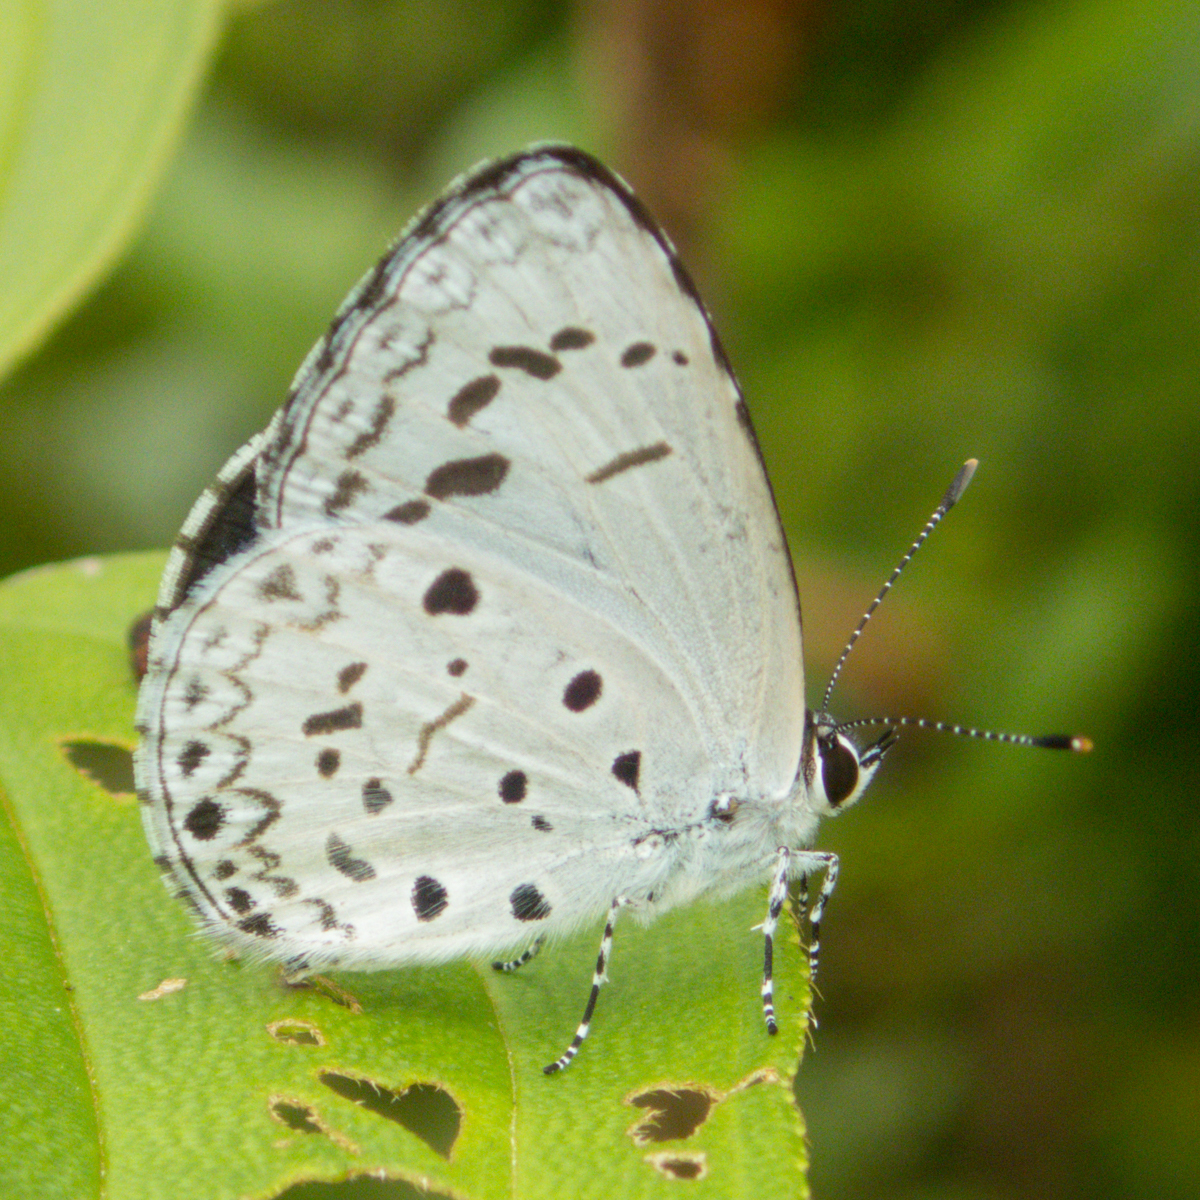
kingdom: Animalia
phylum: Arthropoda
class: Insecta
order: Lepidoptera
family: Lycaenidae
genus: Acytolepis
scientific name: Acytolepis puspa
